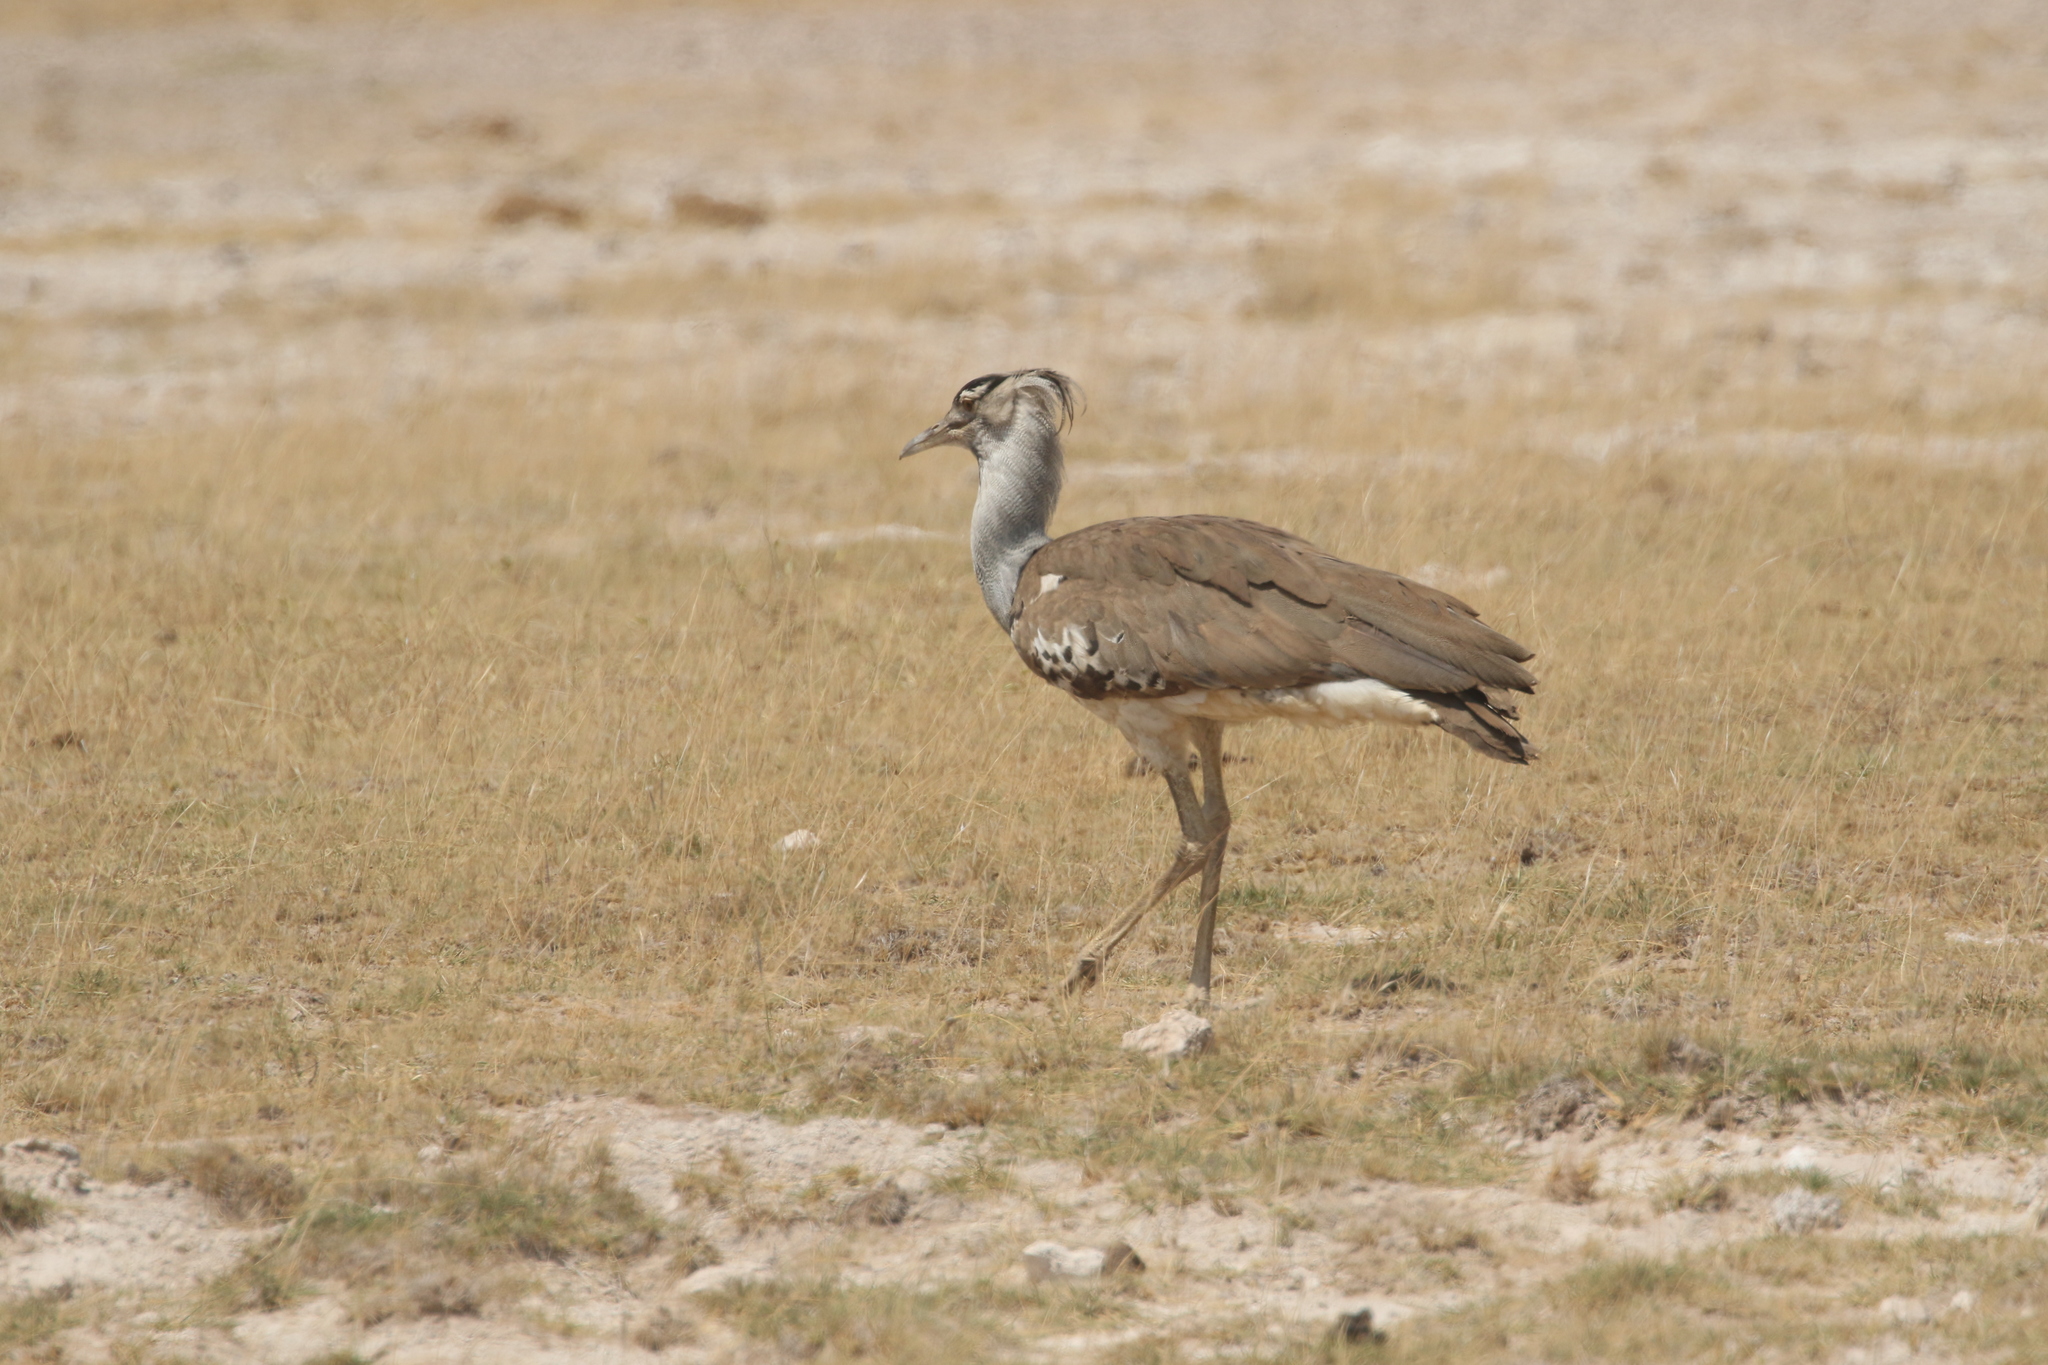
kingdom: Animalia
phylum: Chordata
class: Aves
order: Otidiformes
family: Otididae
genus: Ardeotis
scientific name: Ardeotis kori
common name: Kori bustard
